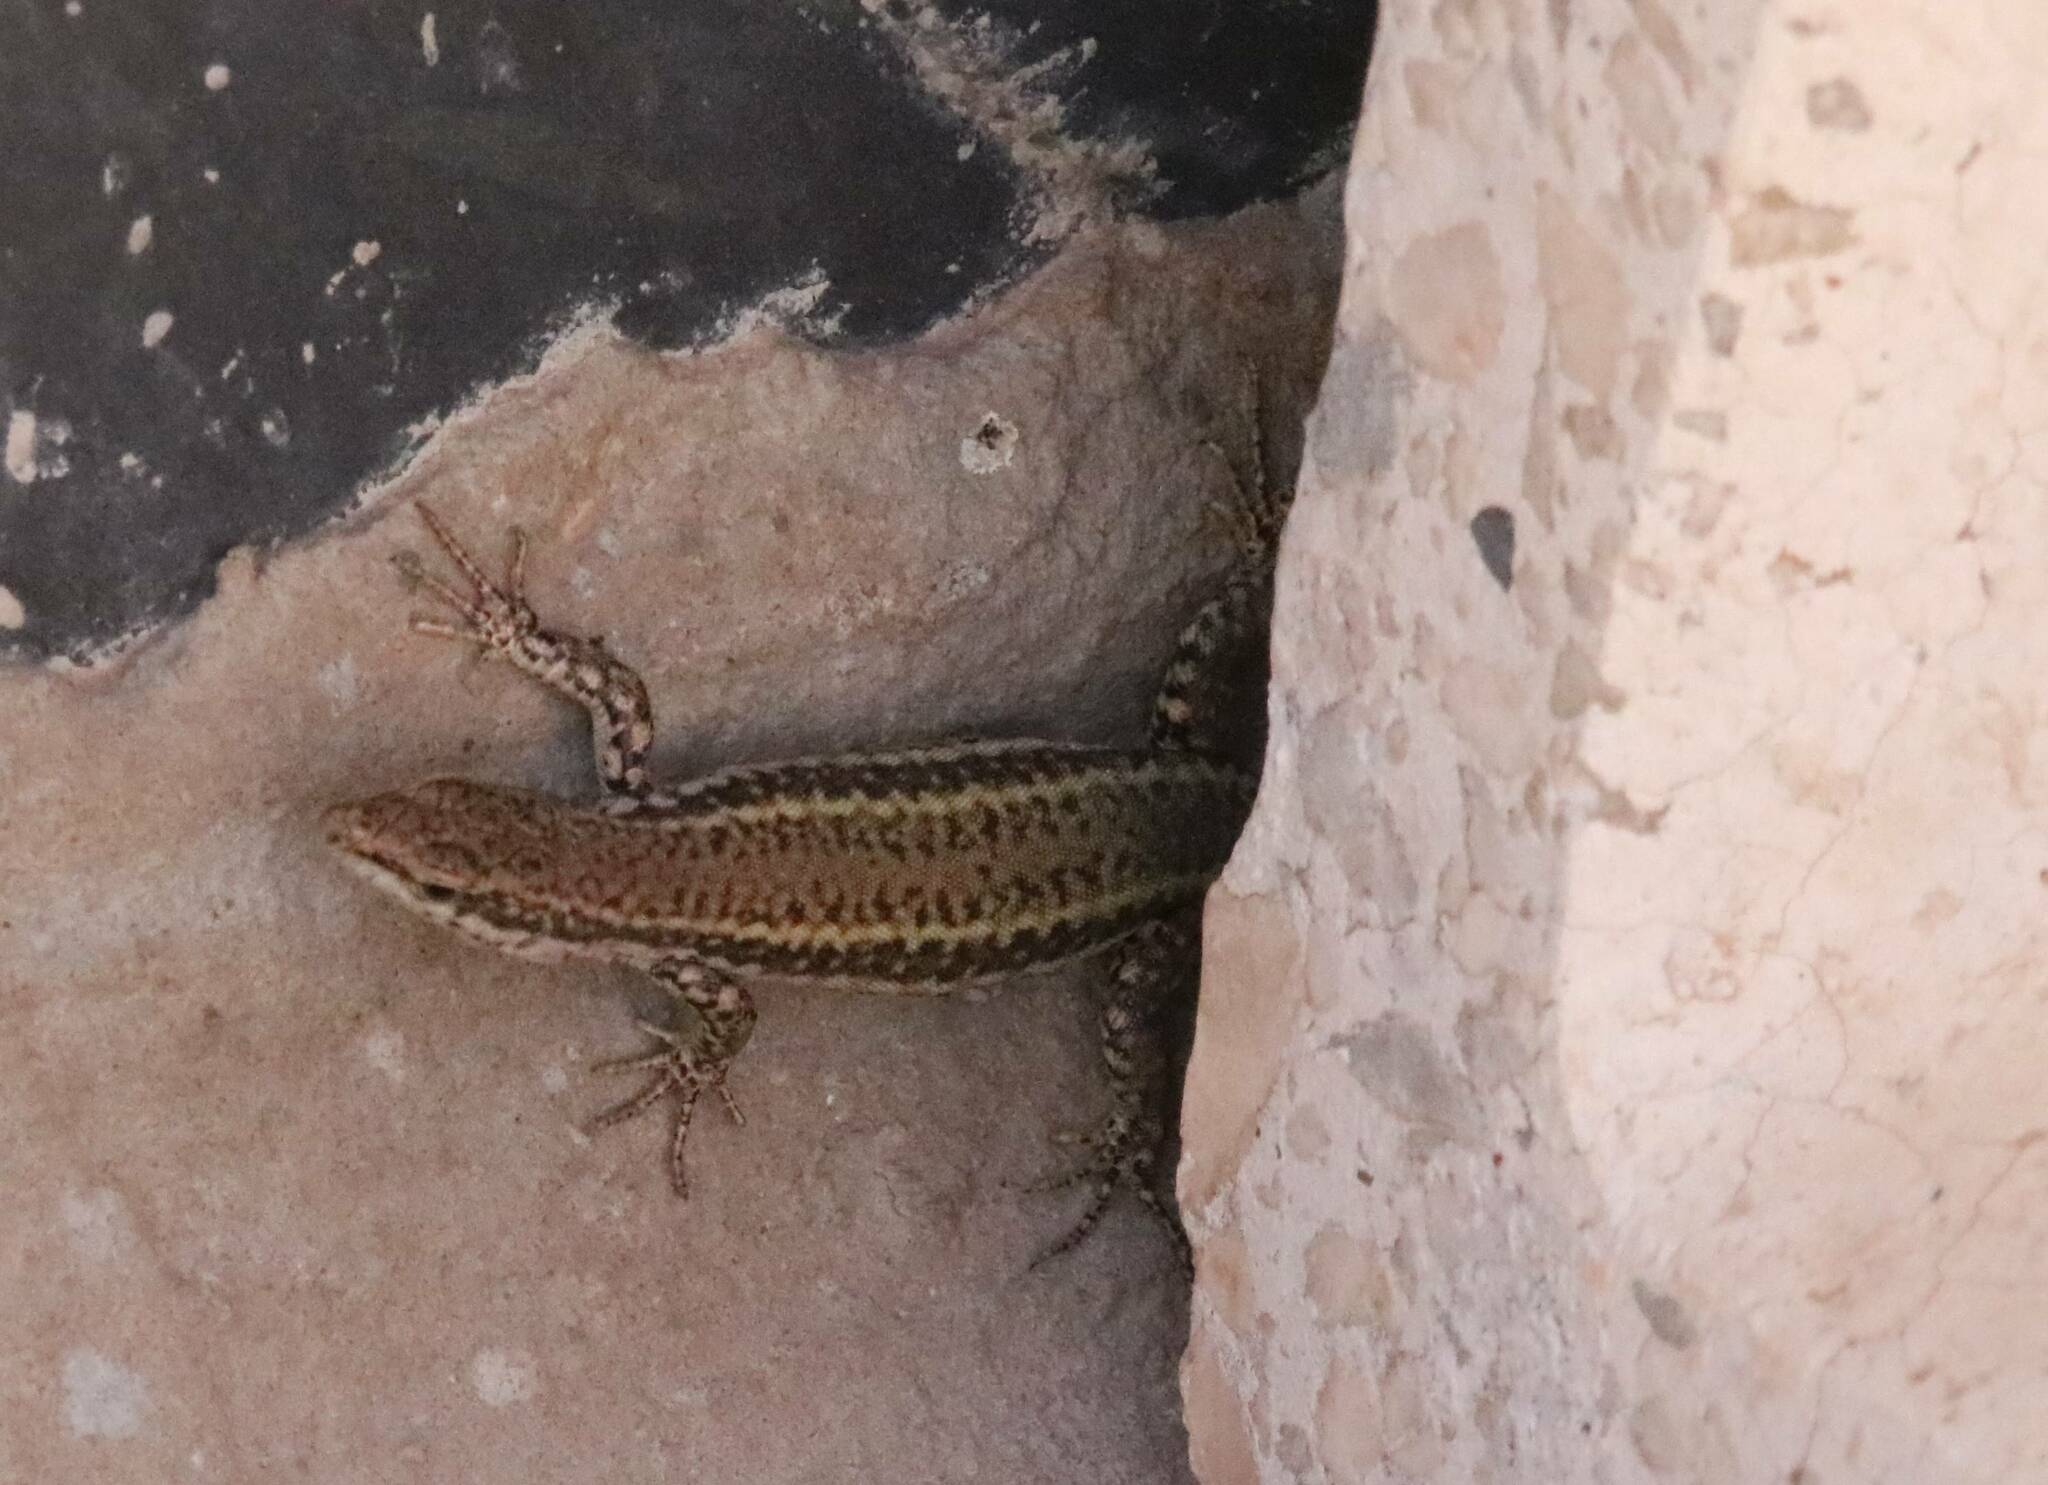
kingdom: Animalia
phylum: Chordata
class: Squamata
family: Lacertidae
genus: Podarcis
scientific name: Podarcis vaucheri
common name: Vaucher's wall lizard
